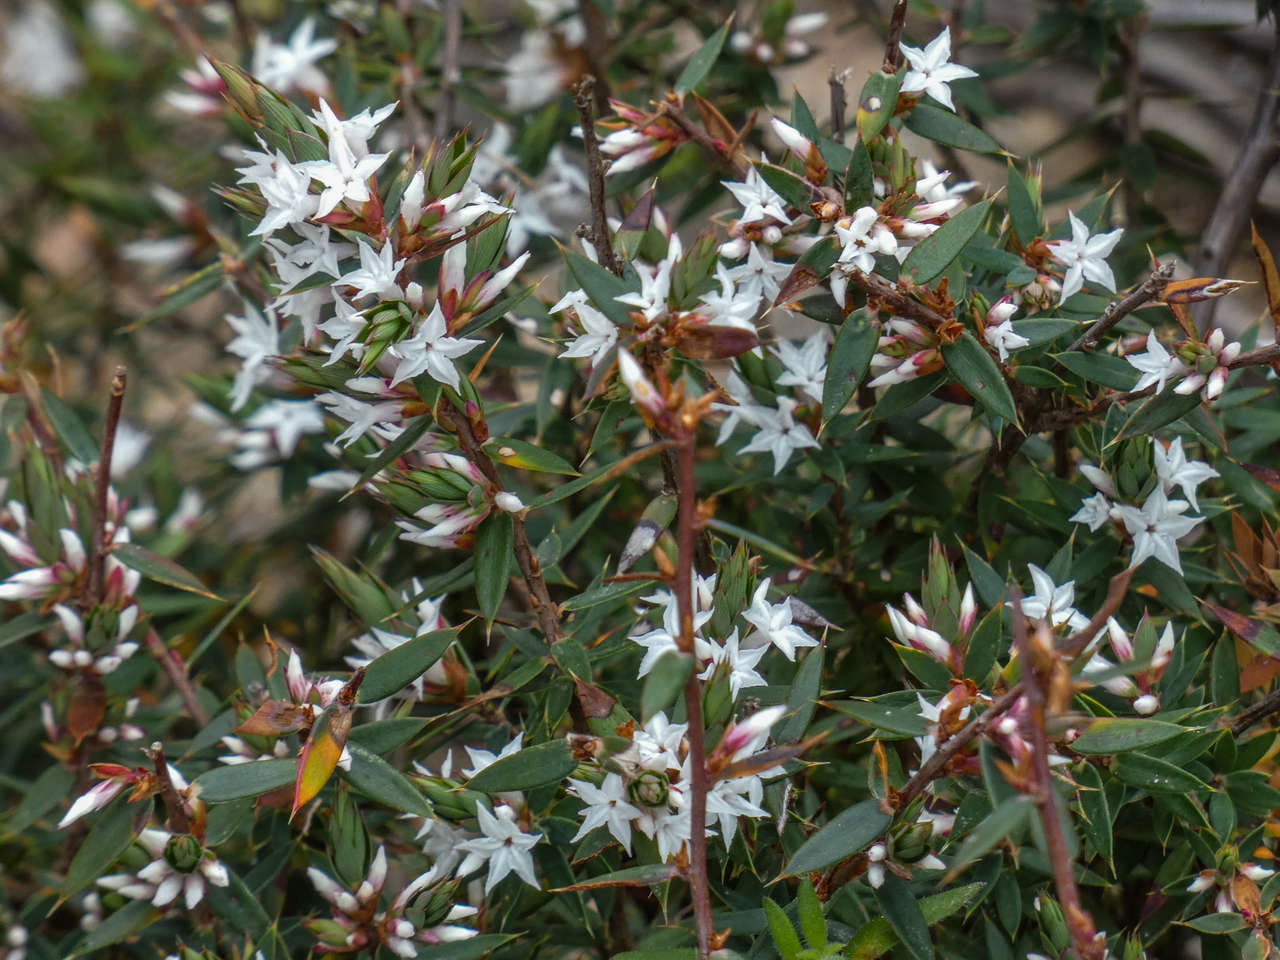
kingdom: Plantae
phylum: Tracheophyta
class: Magnoliopsida
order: Ericales
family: Ericaceae
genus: Brachyloma
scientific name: Brachyloma depressum
